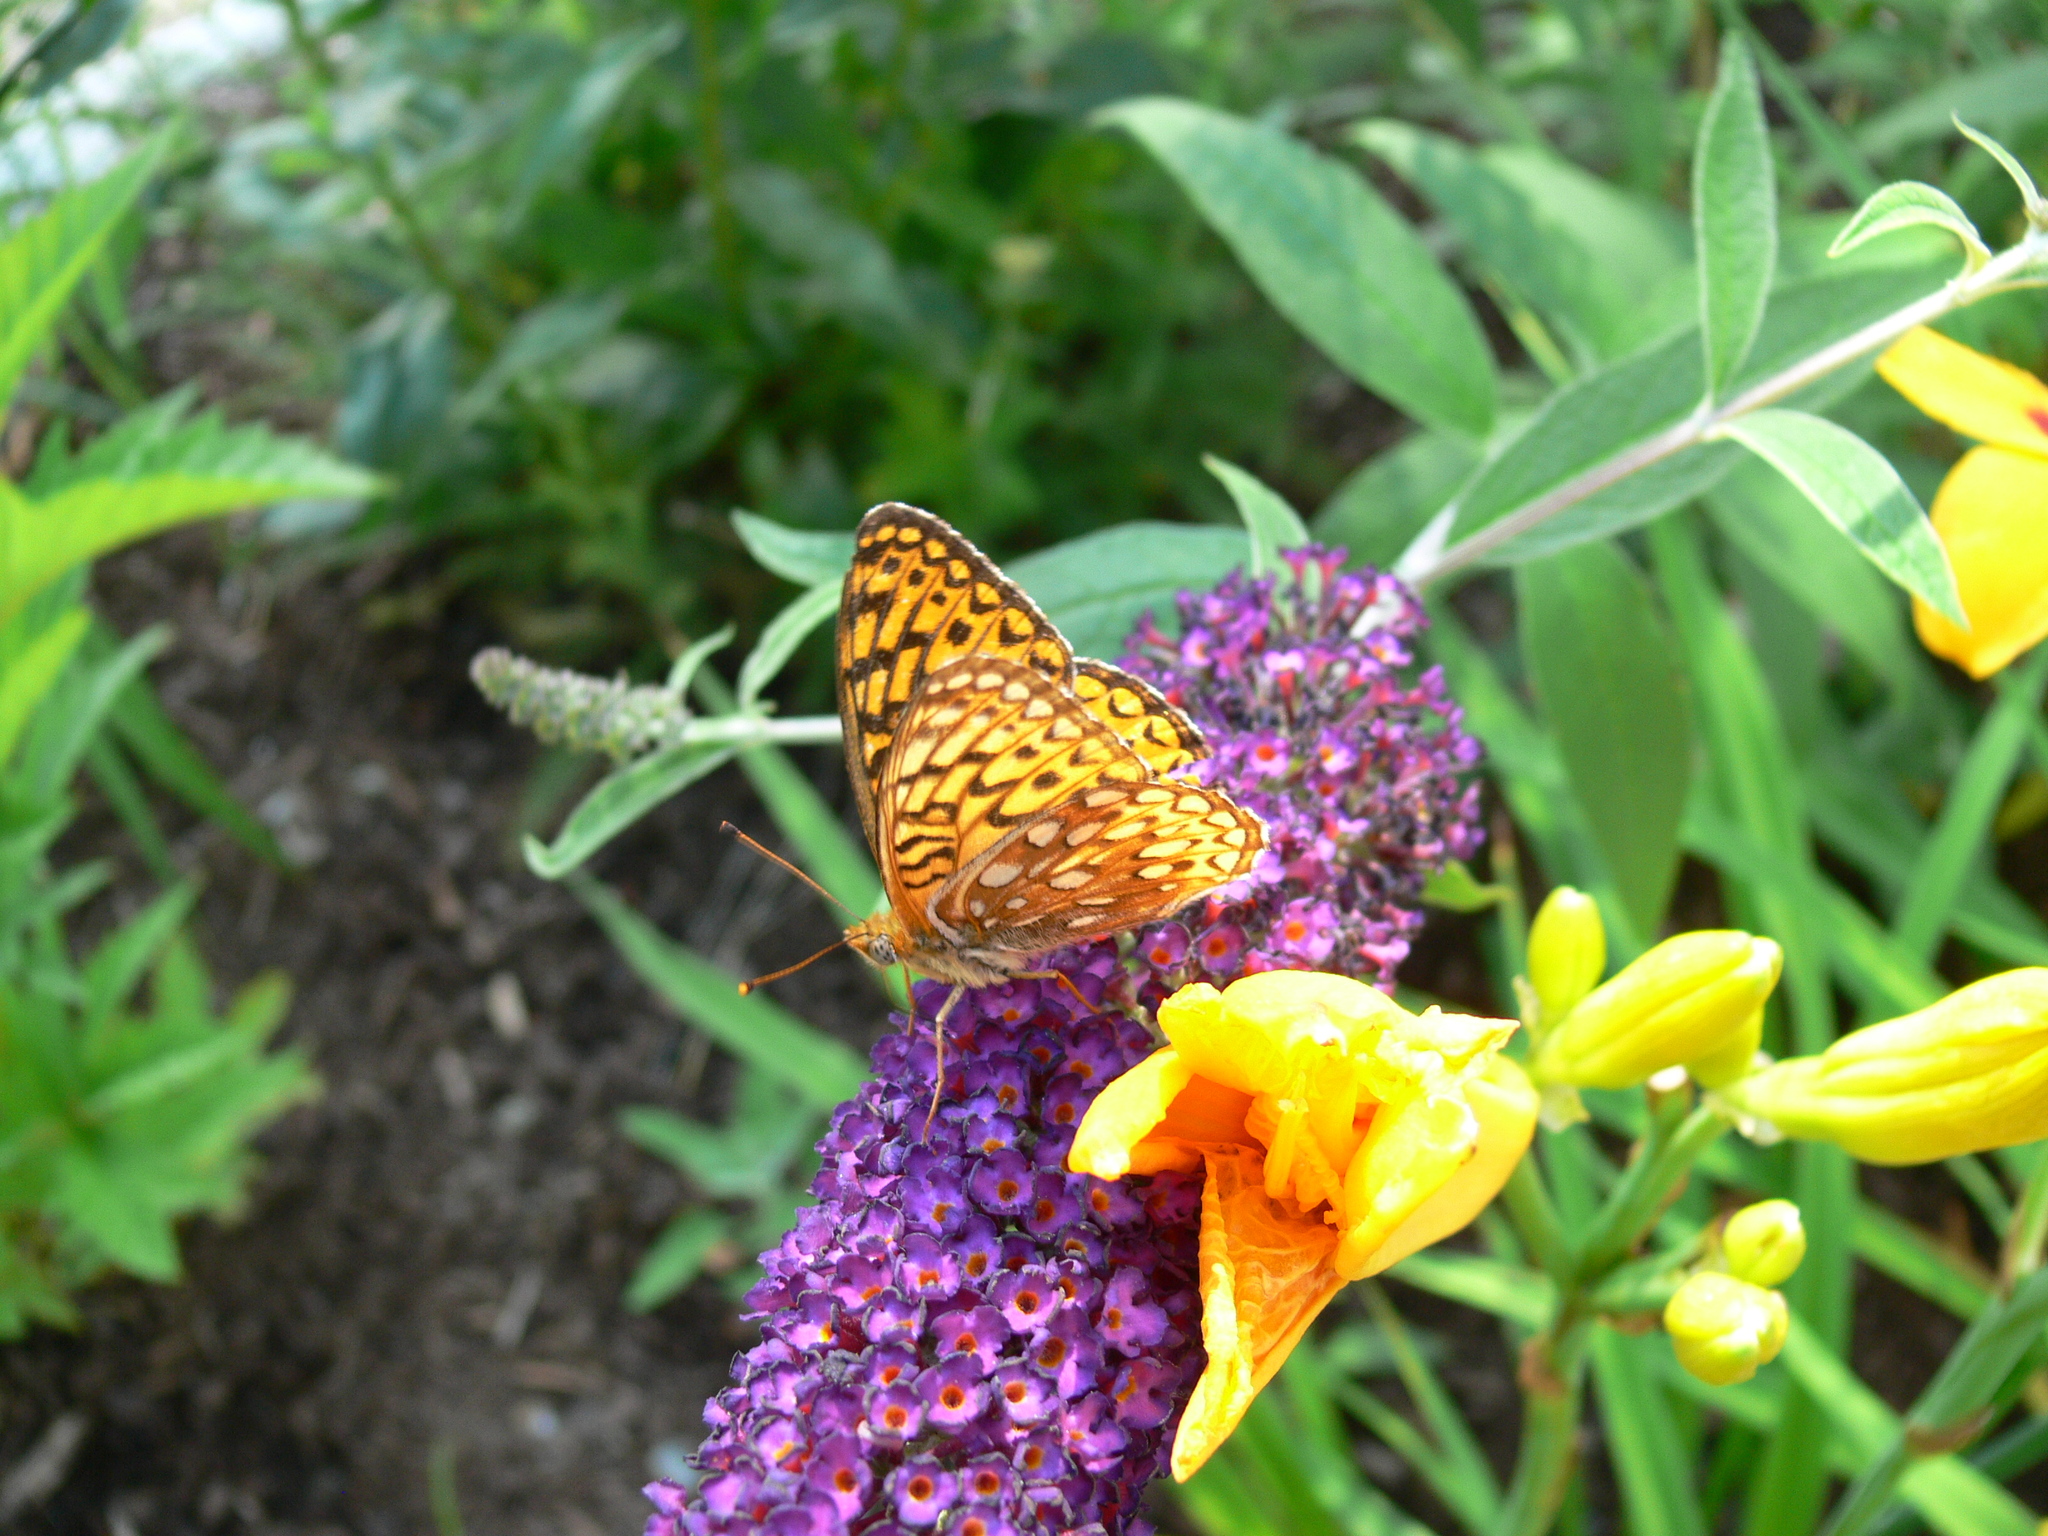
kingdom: Animalia
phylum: Arthropoda
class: Insecta
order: Lepidoptera
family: Nymphalidae
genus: Speyeria
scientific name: Speyeria atlantis
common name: Atlantis fritillary
